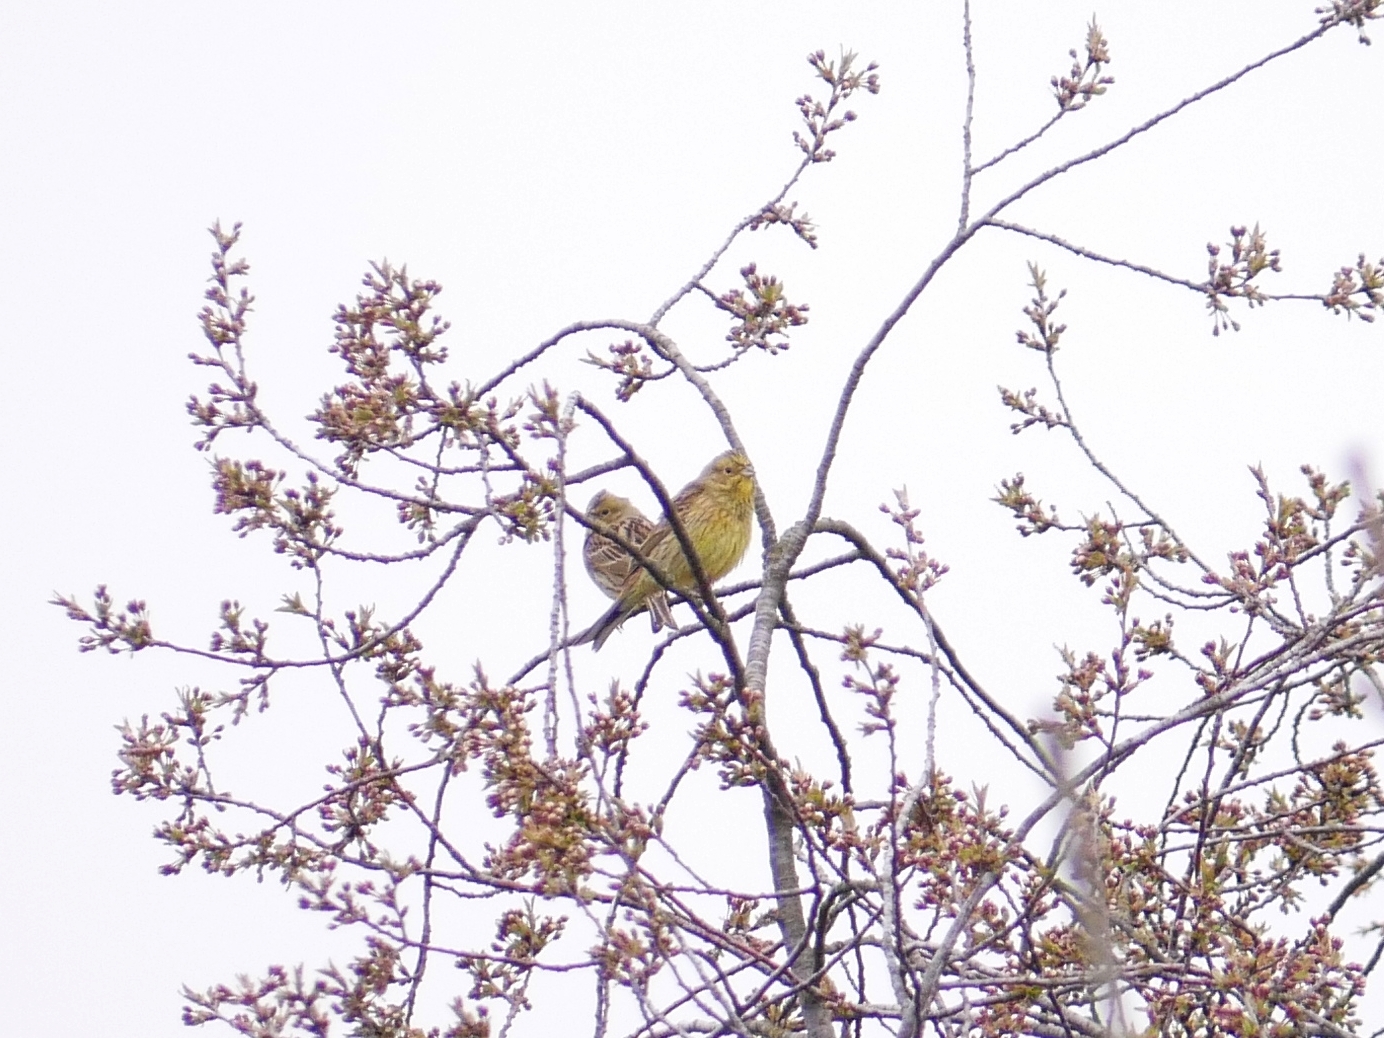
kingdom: Animalia
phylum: Chordata
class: Aves
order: Passeriformes
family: Emberizidae
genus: Emberiza
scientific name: Emberiza citrinella
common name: Yellowhammer
